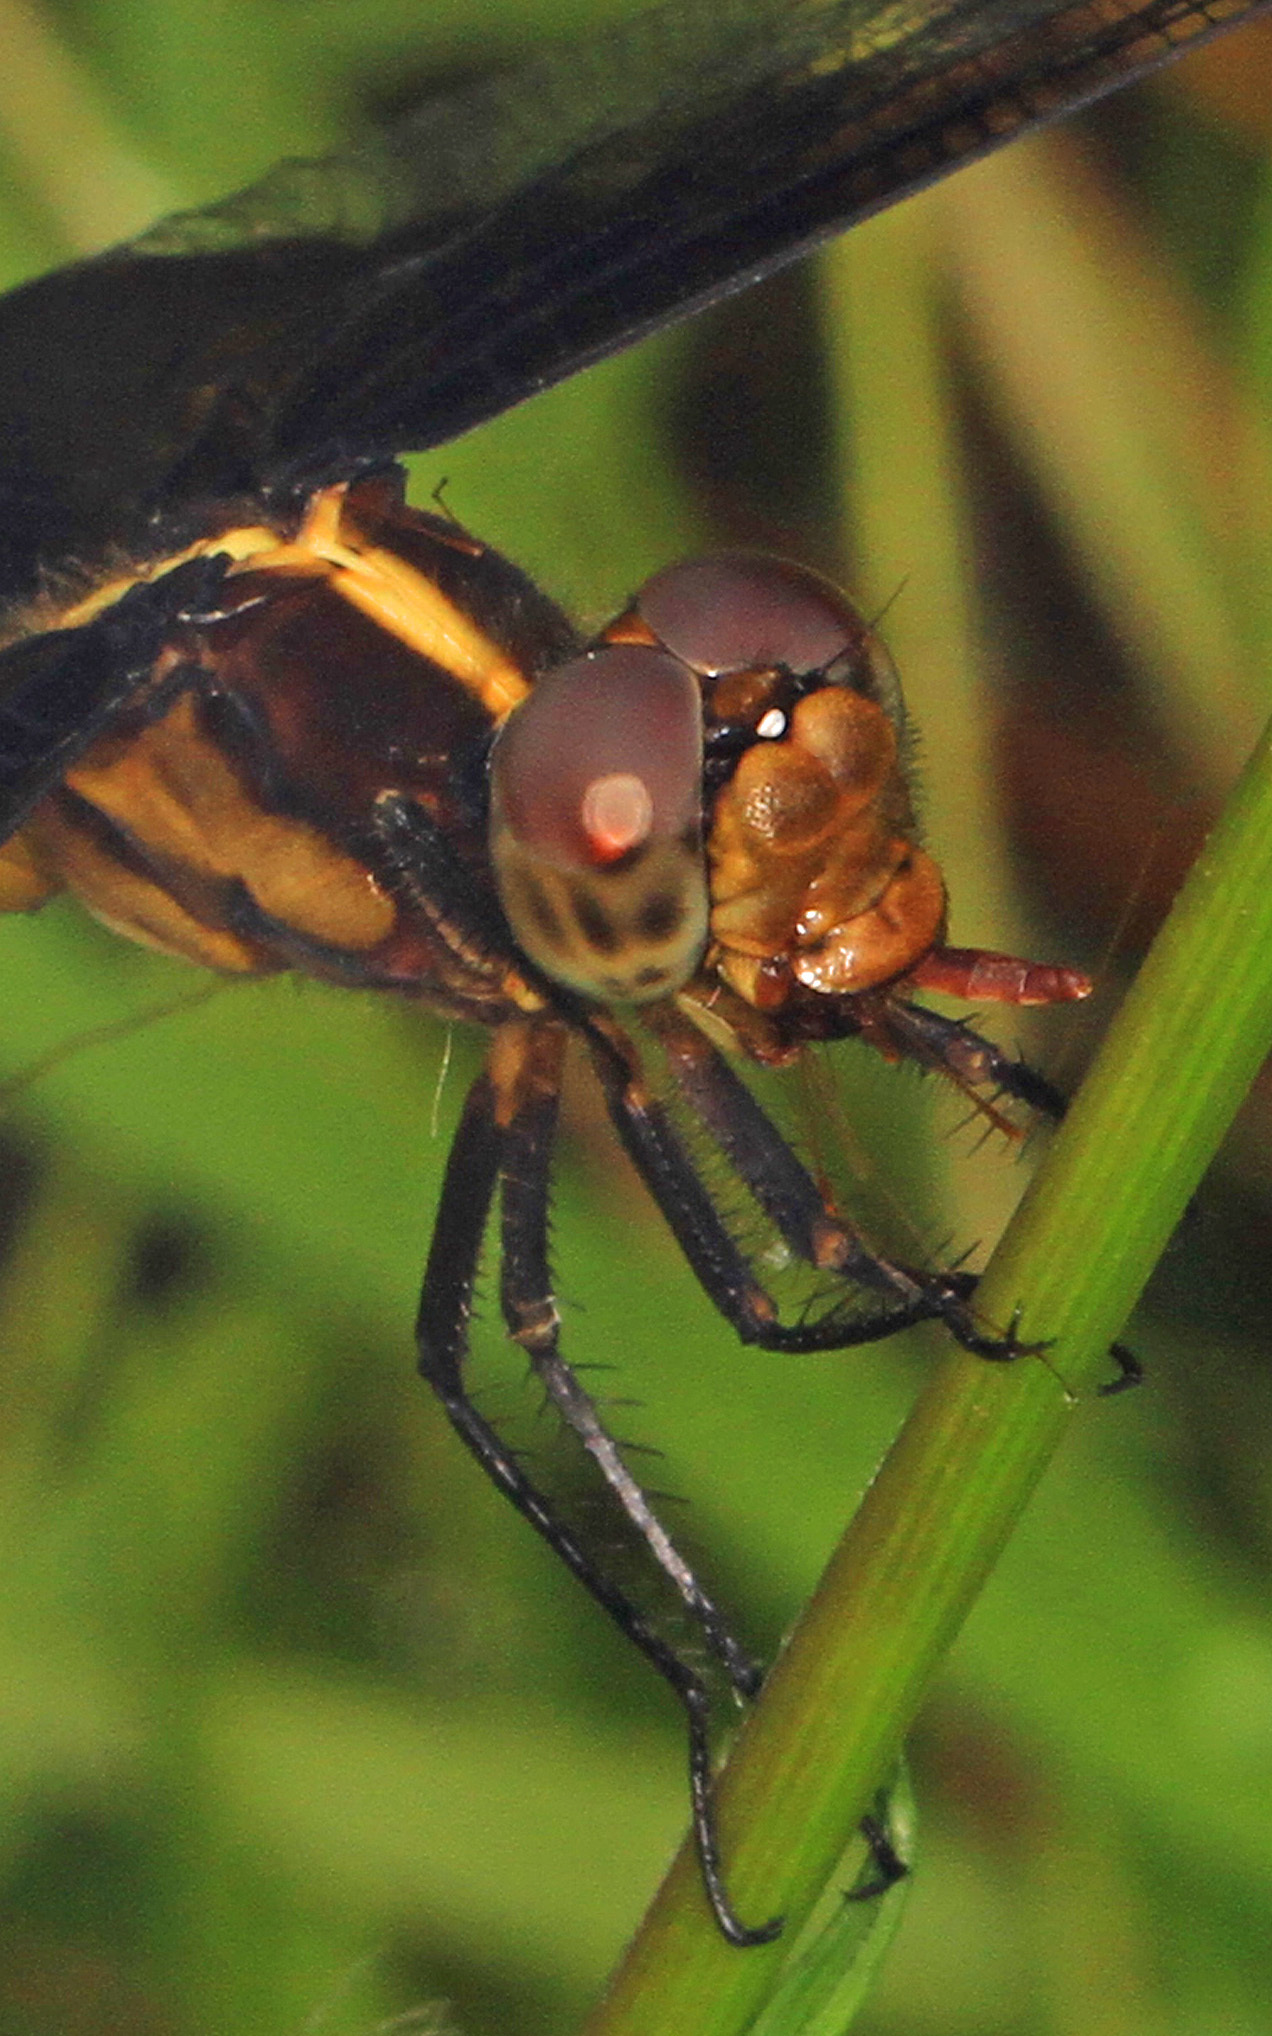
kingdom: Animalia
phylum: Arthropoda
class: Insecta
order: Odonata
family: Libellulidae
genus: Libellula
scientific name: Libellula luctuosa
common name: Widow skimmer
